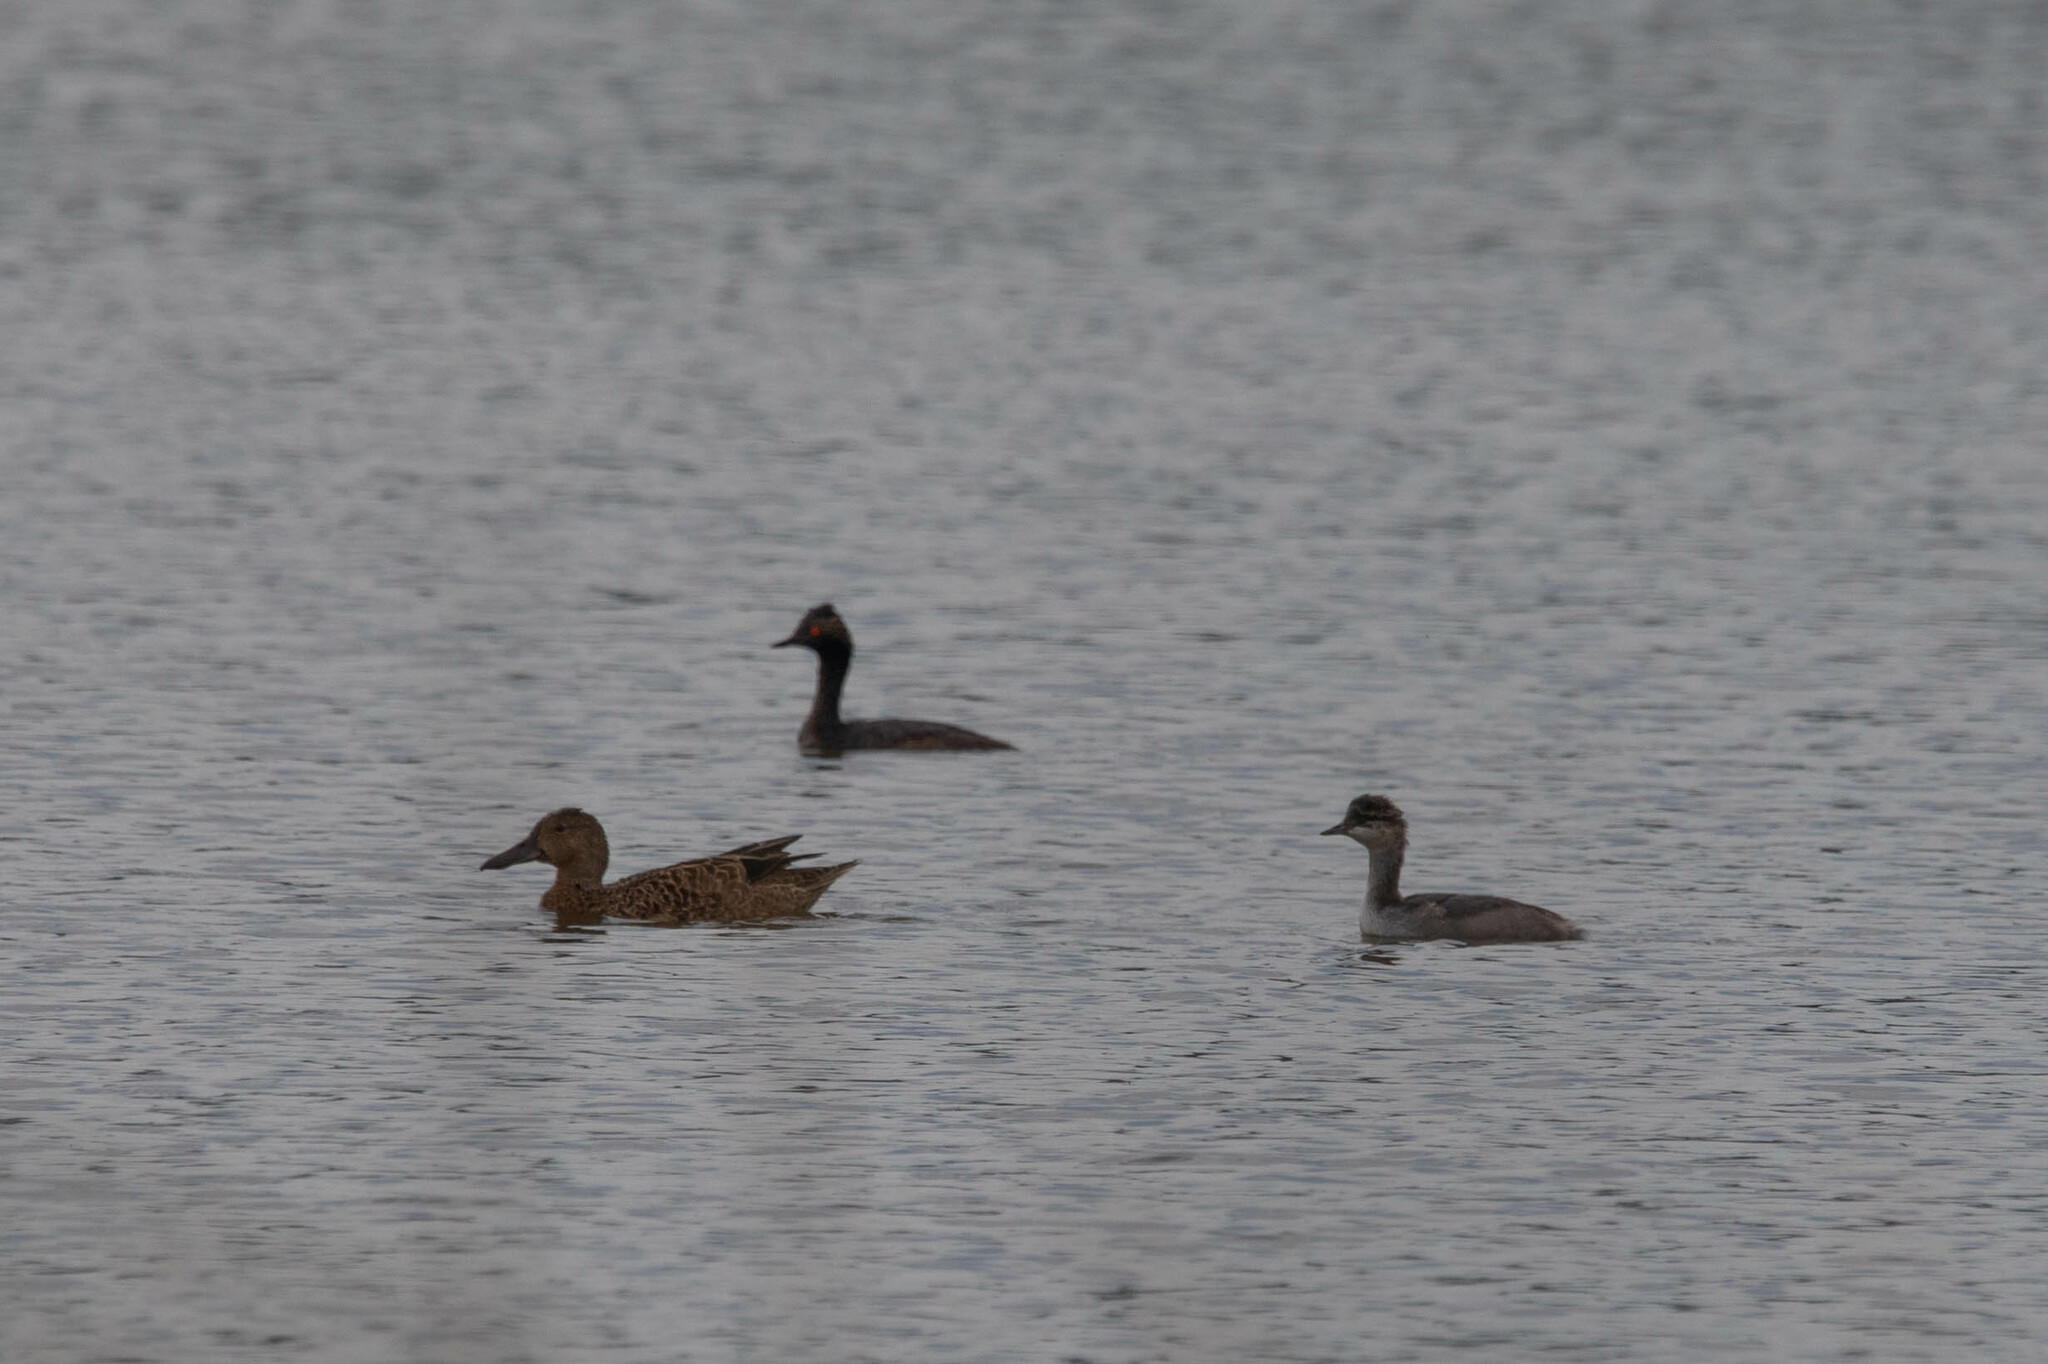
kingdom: Animalia
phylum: Chordata
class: Aves
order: Anseriformes
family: Anatidae
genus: Spatula
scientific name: Spatula cyanoptera
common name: Cinnamon teal
